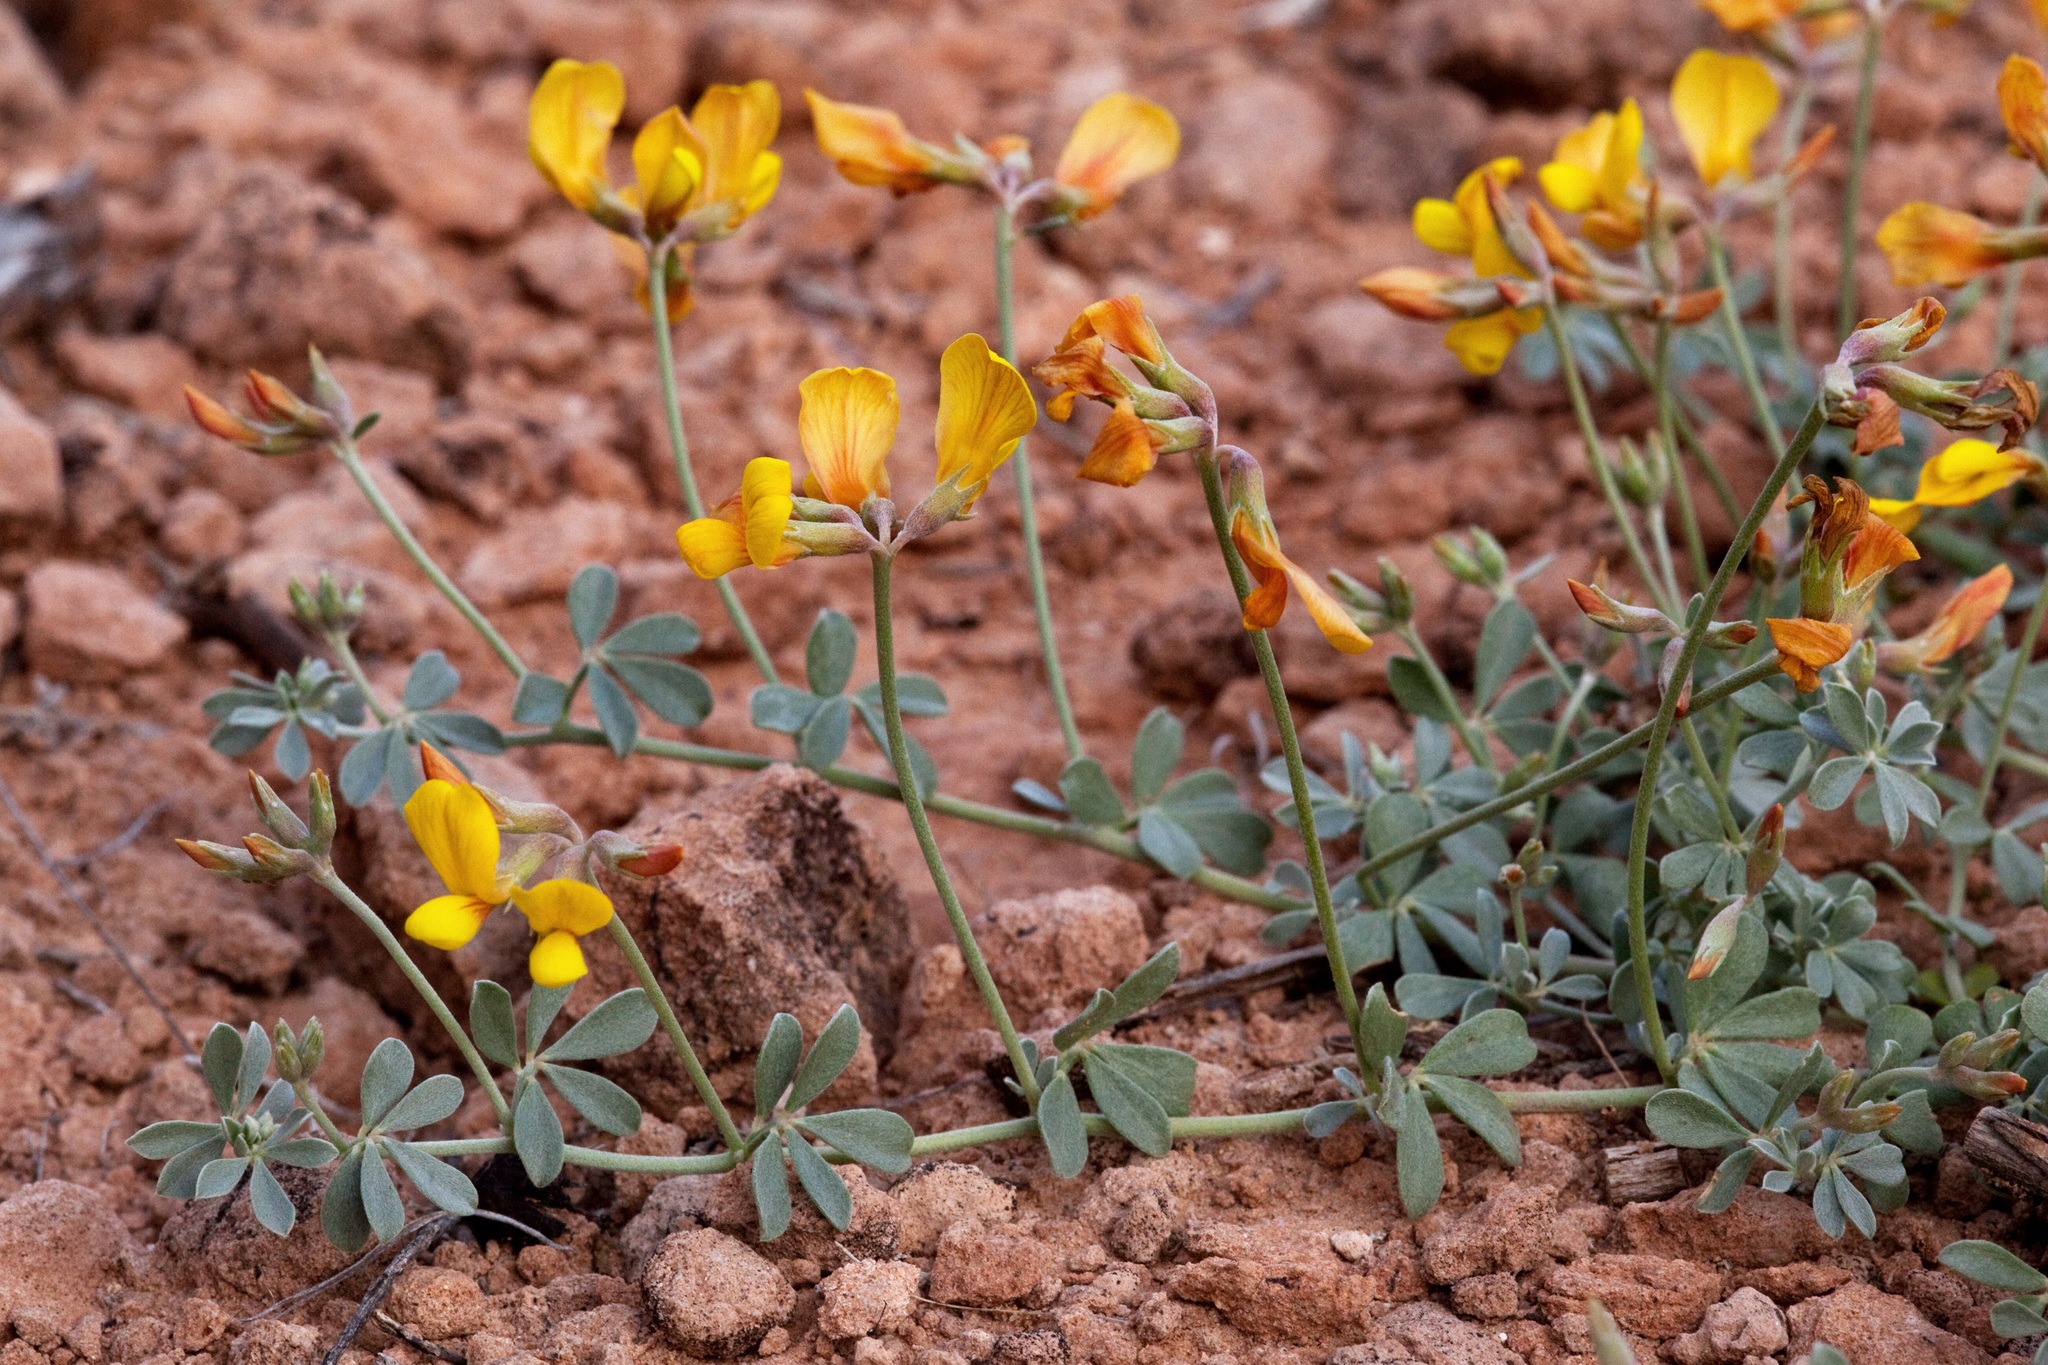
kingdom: Plantae
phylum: Tracheophyta
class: Magnoliopsida
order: Fabales
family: Fabaceae
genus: Acmispon
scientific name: Acmispon mearnsii
